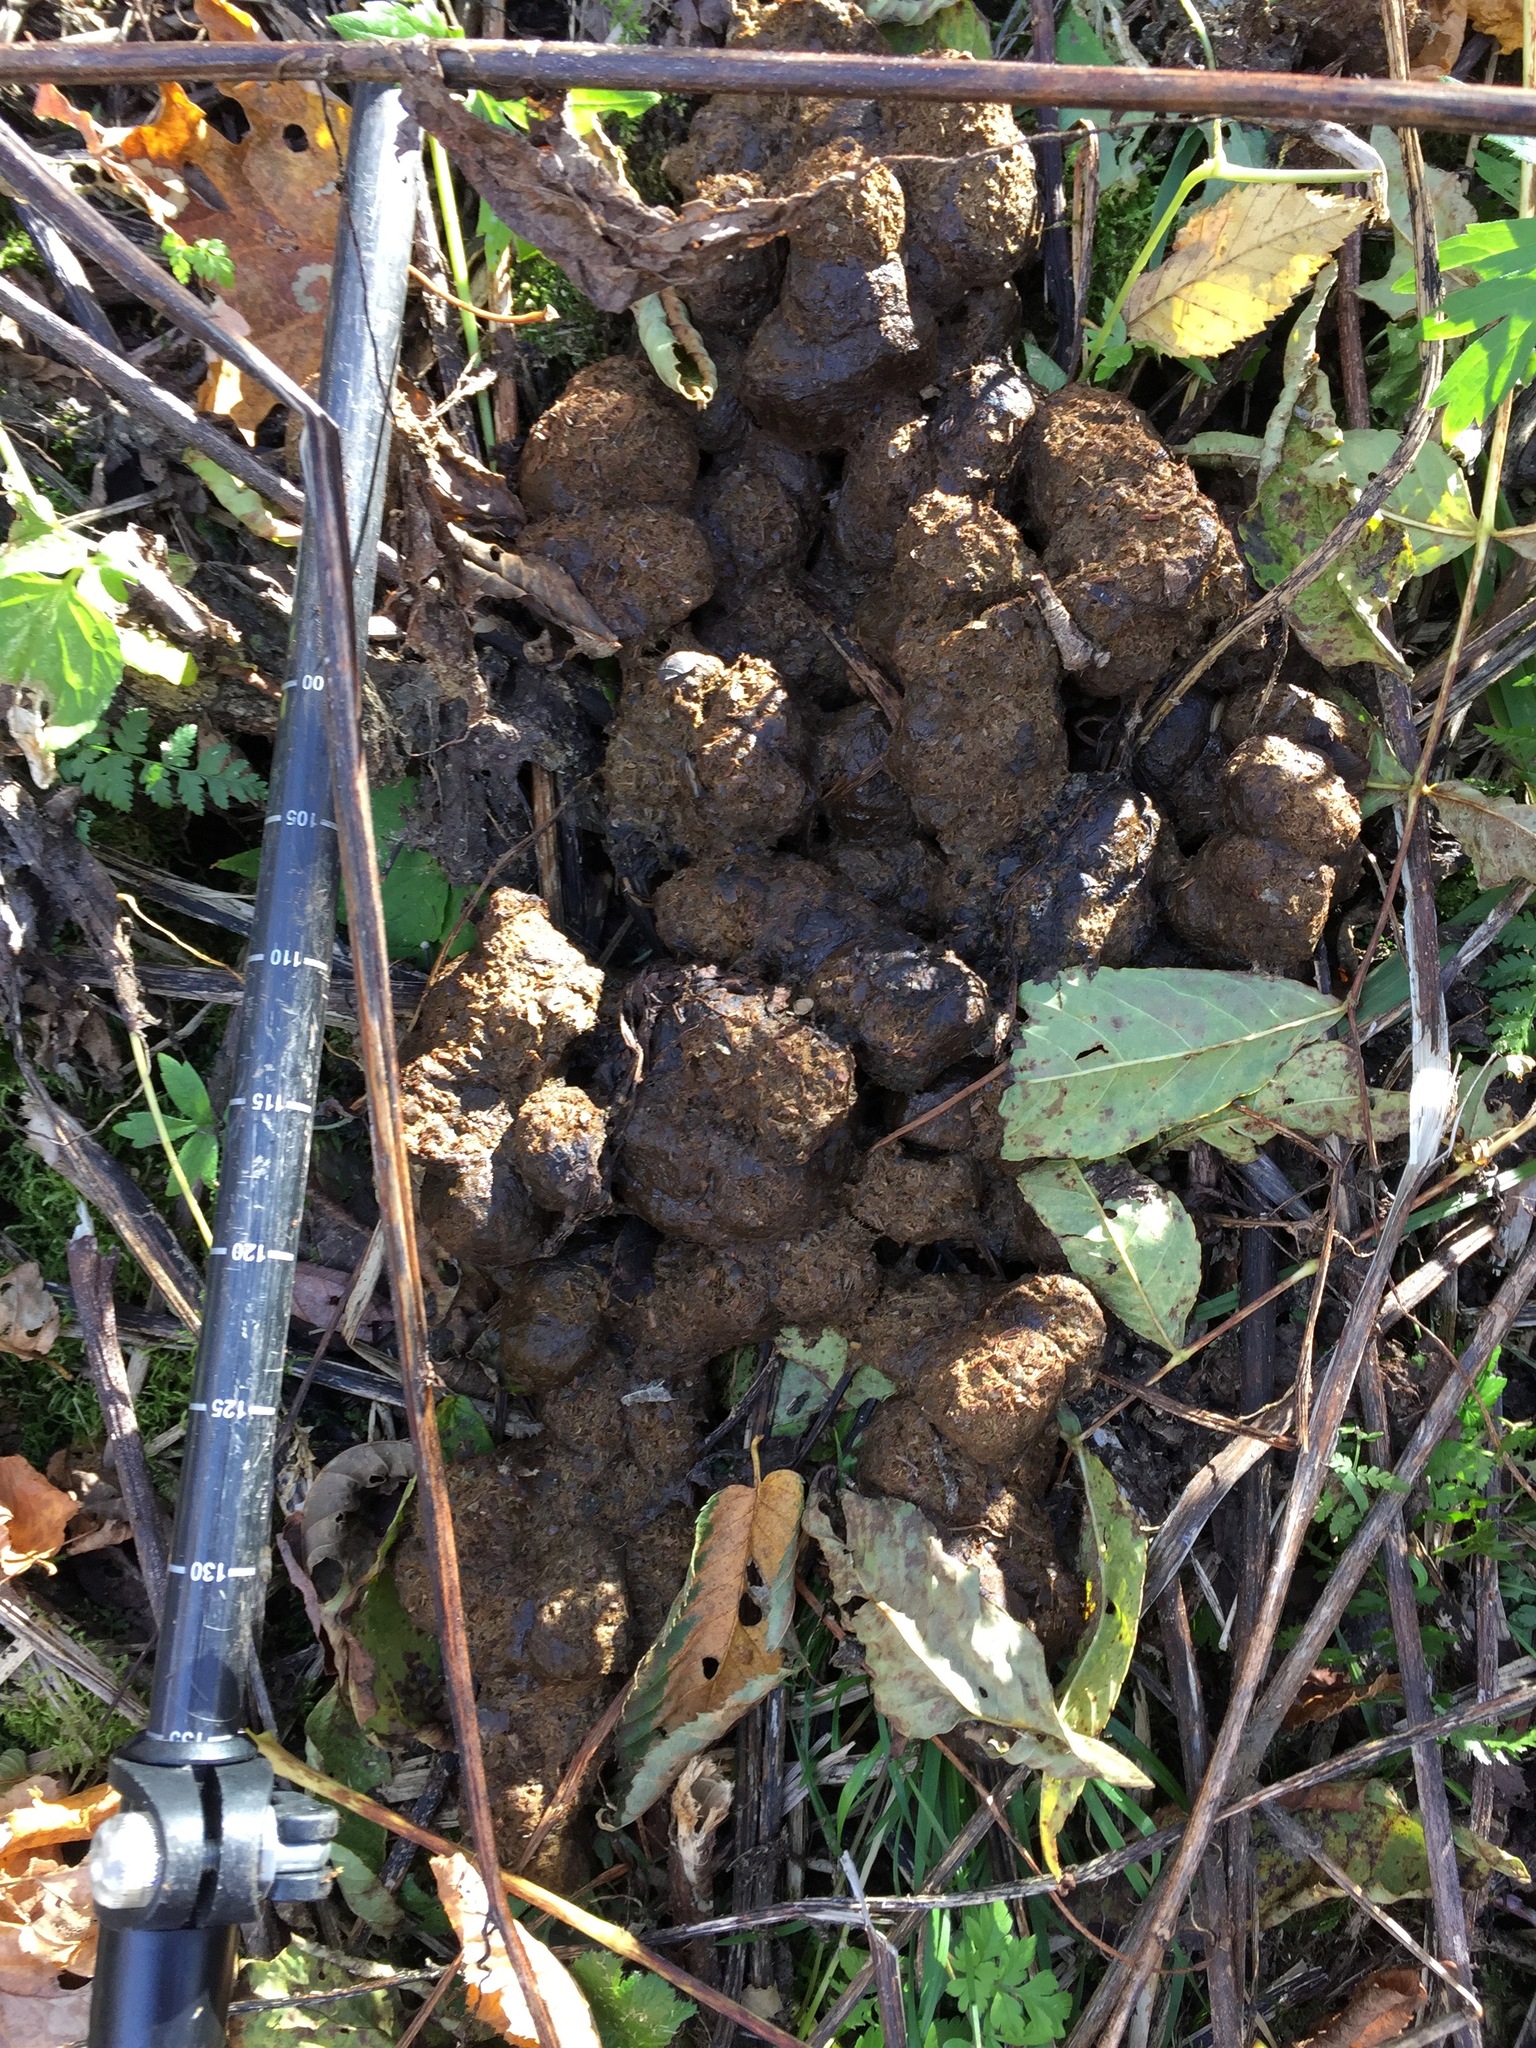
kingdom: Animalia
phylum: Chordata
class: Mammalia
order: Carnivora
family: Ursidae
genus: Ursus
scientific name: Ursus americanus
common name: American black bear
